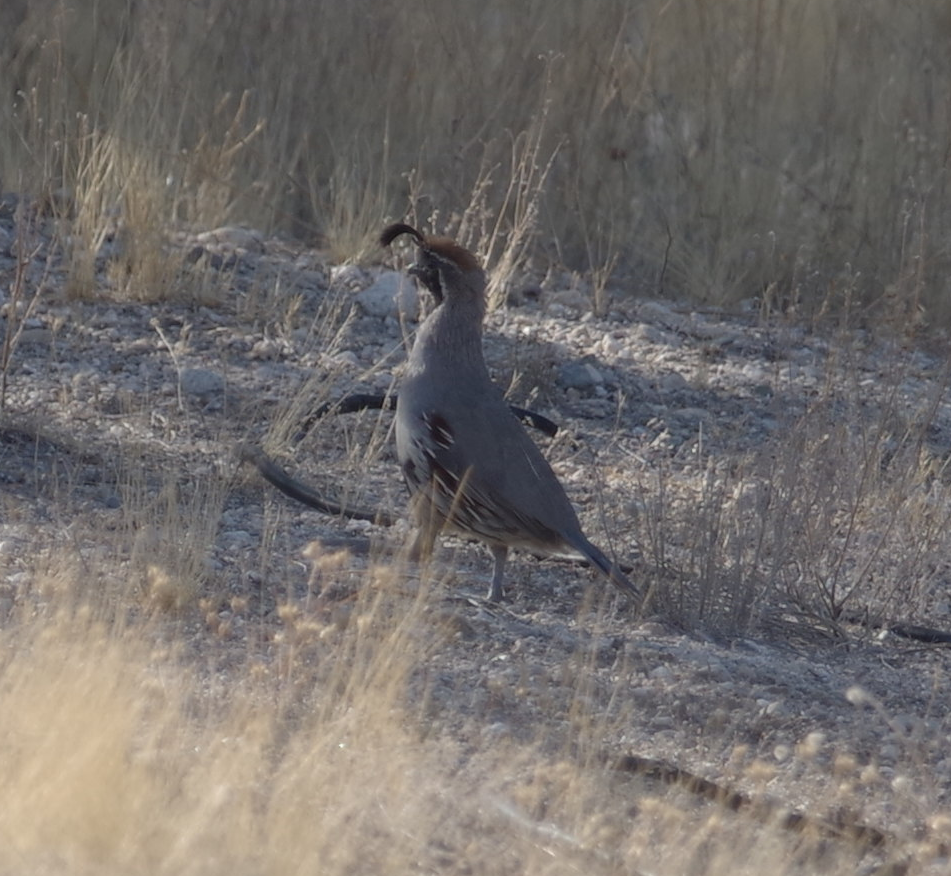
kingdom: Animalia
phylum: Chordata
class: Aves
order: Galliformes
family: Odontophoridae
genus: Callipepla
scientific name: Callipepla gambelii
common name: Gambel's quail
